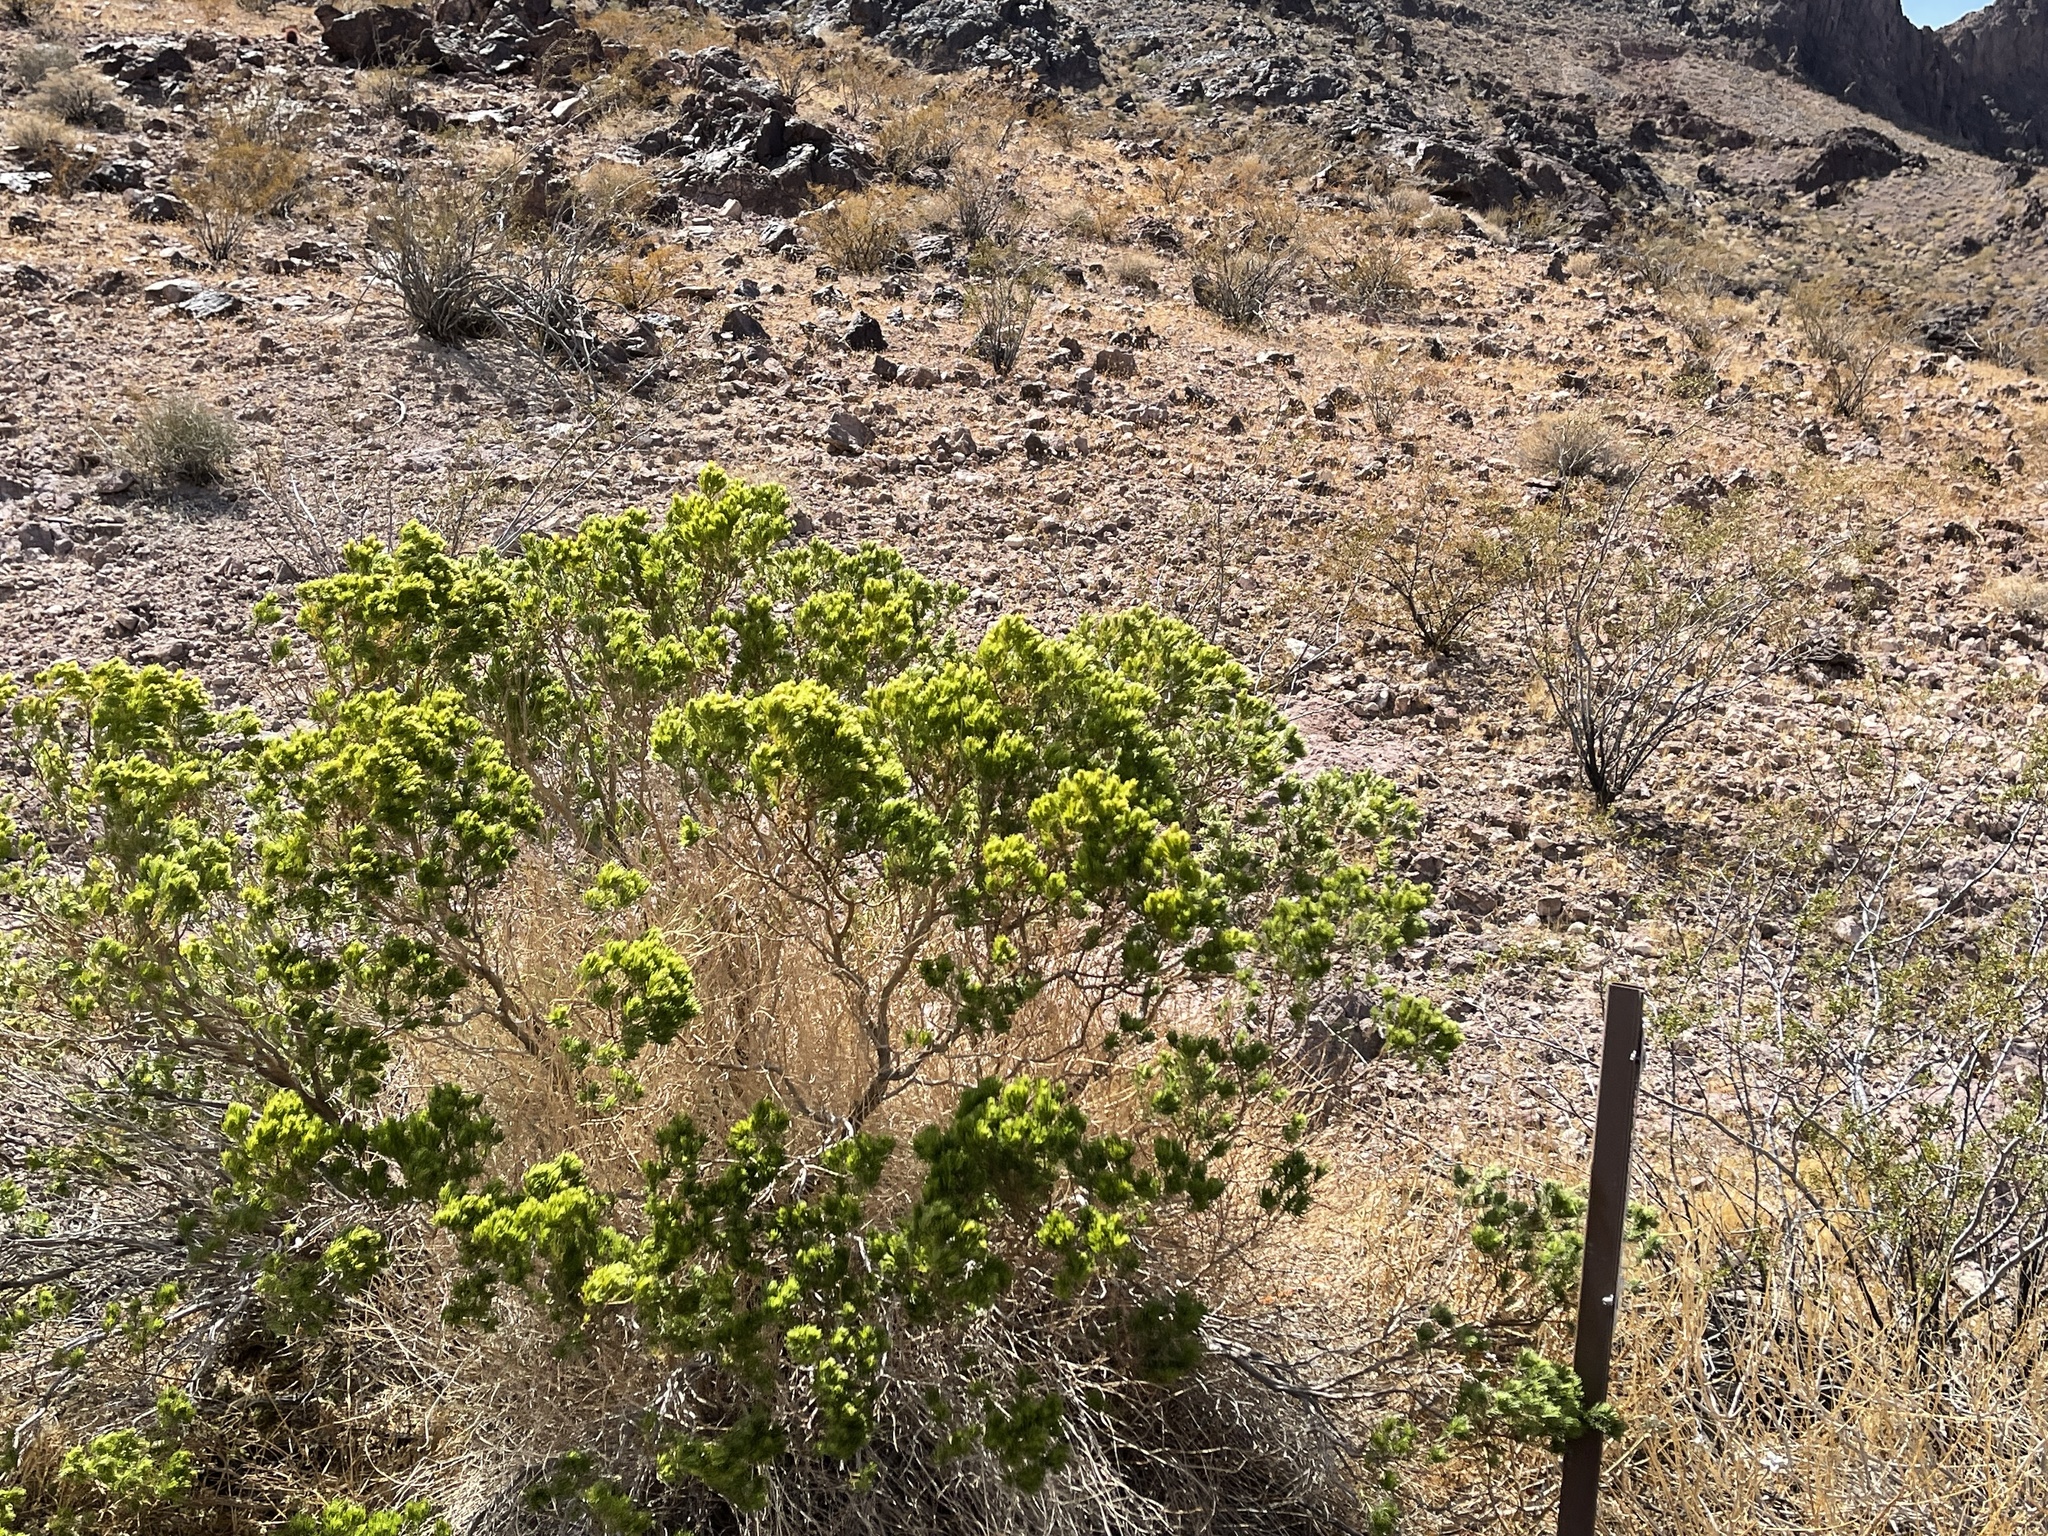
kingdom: Plantae
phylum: Tracheophyta
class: Magnoliopsida
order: Asterales
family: Asteraceae
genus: Peucephyllum
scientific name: Peucephyllum schottii
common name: Pygmy-cedar
